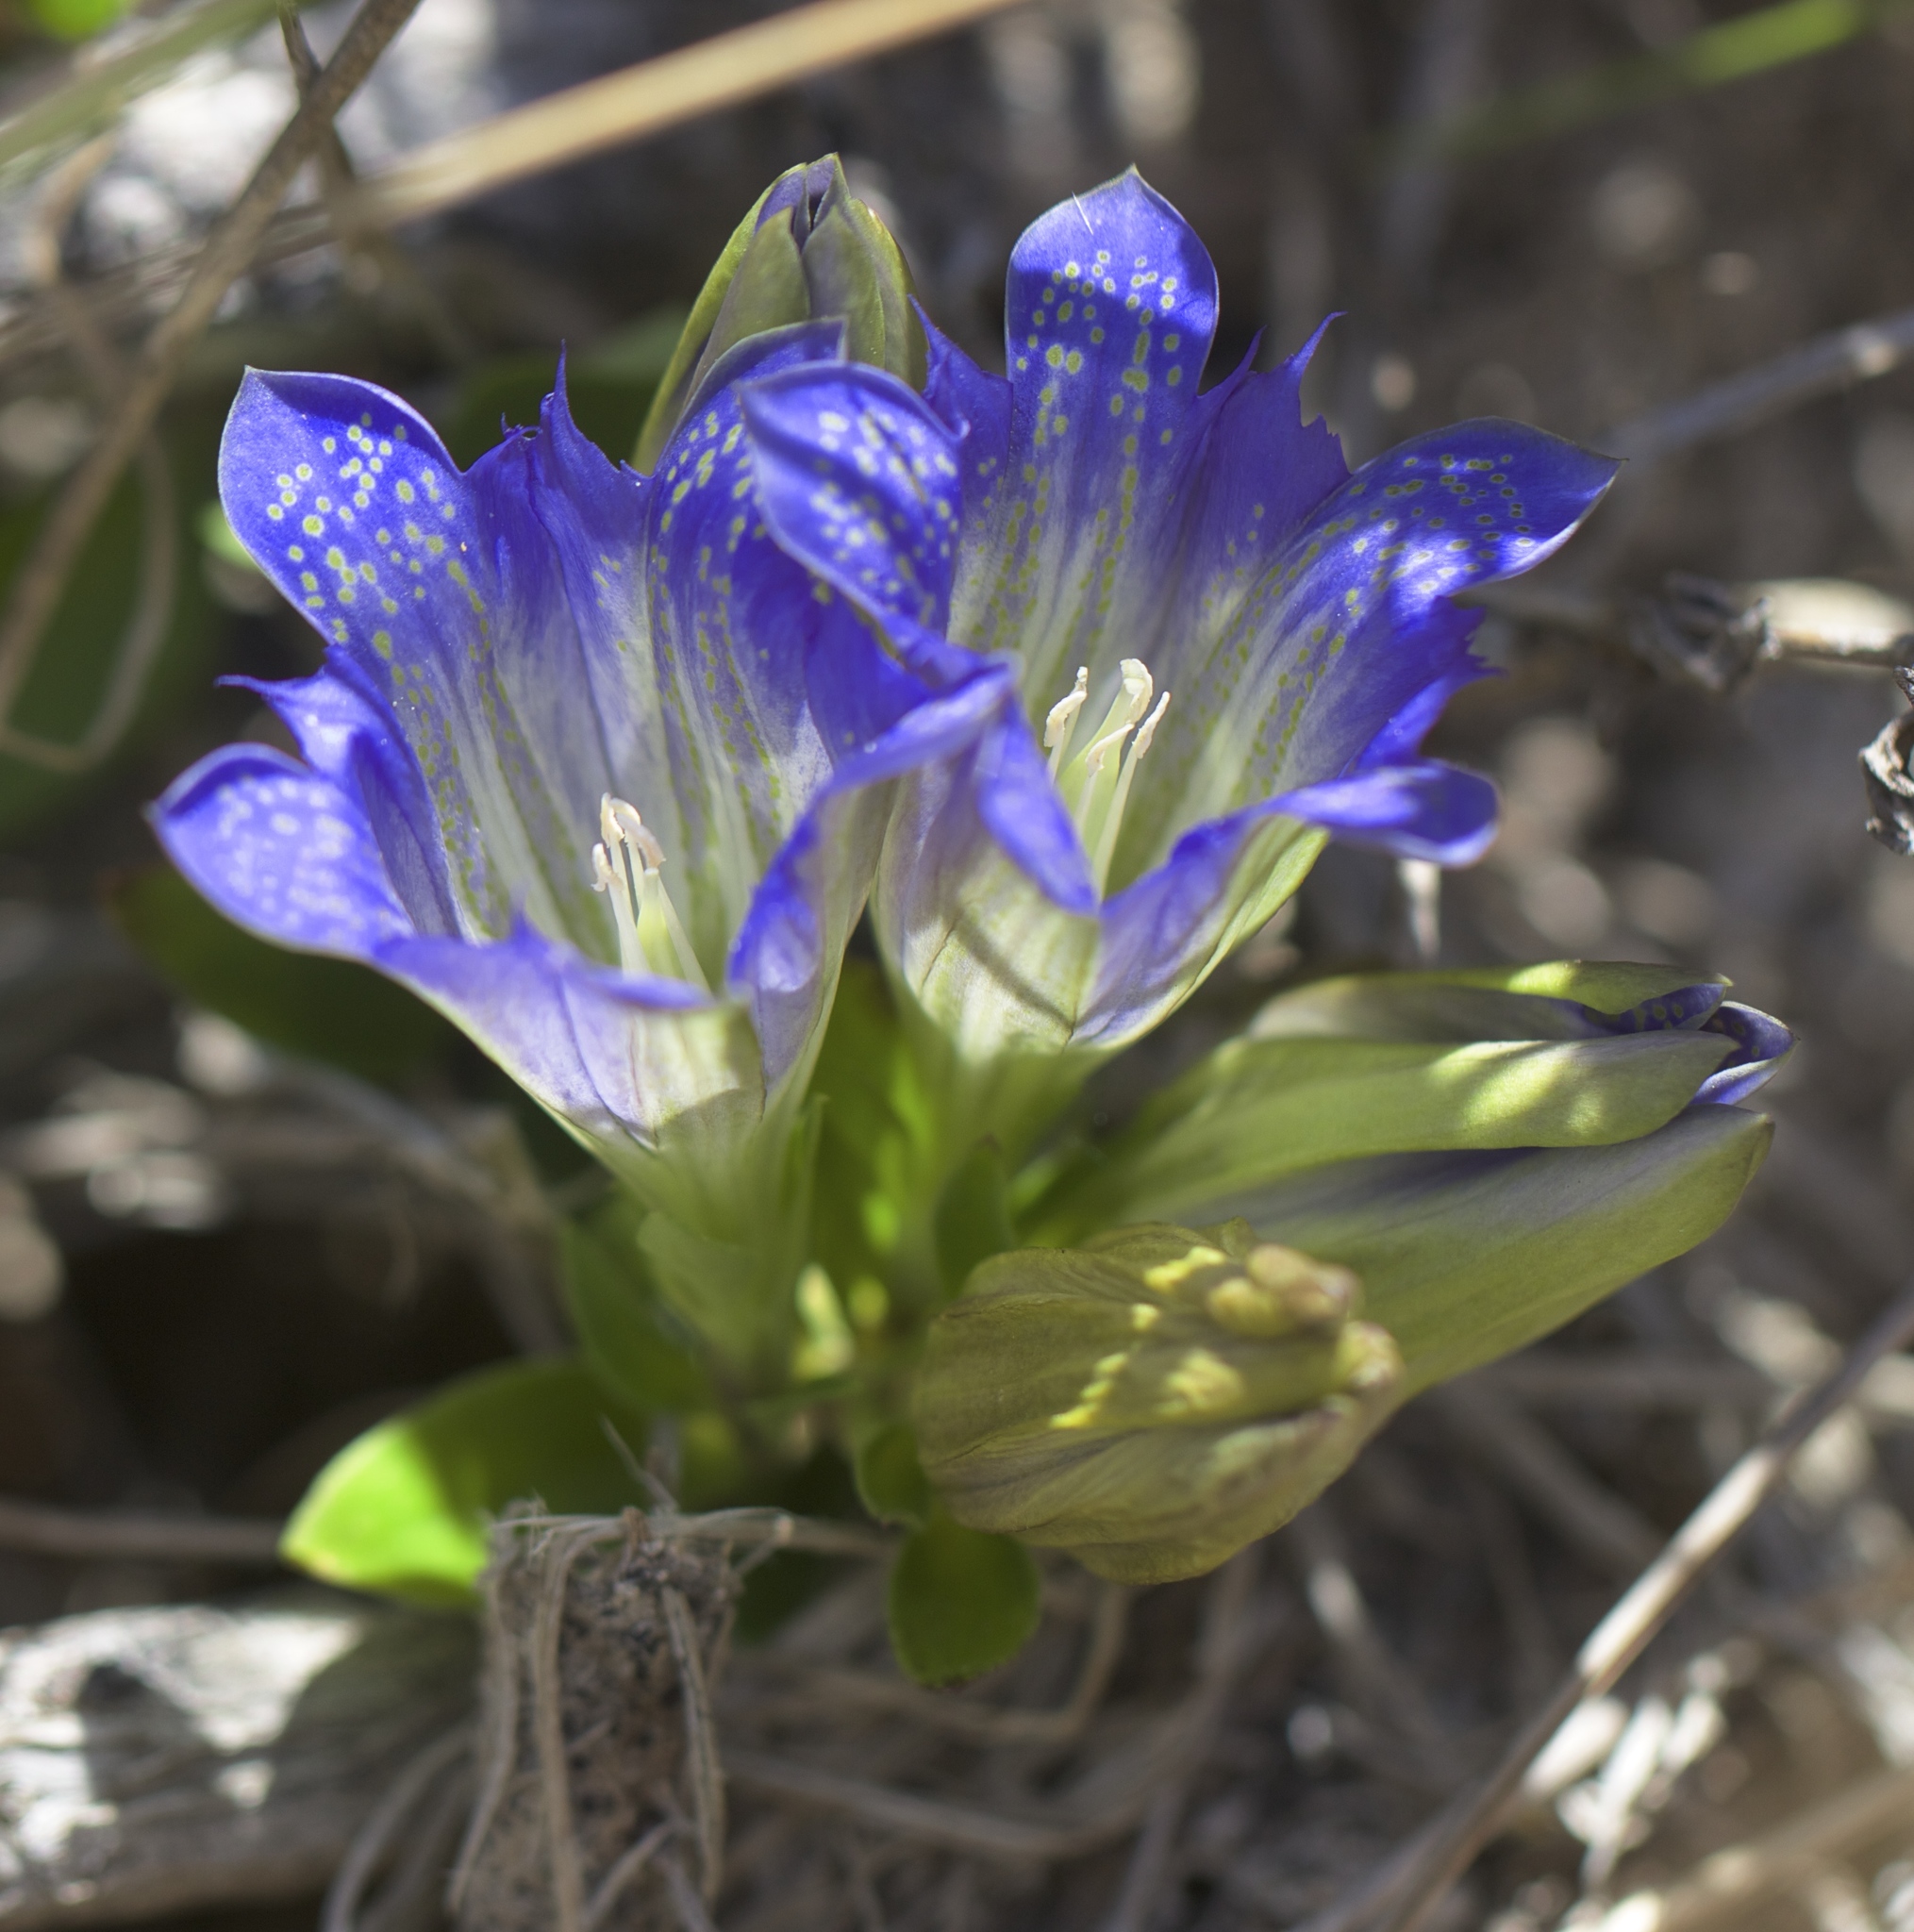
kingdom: Plantae
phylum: Tracheophyta
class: Magnoliopsida
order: Gentianales
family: Gentianaceae
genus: Gentiana
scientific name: Gentiana affinis
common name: Rocky mountain gentian
